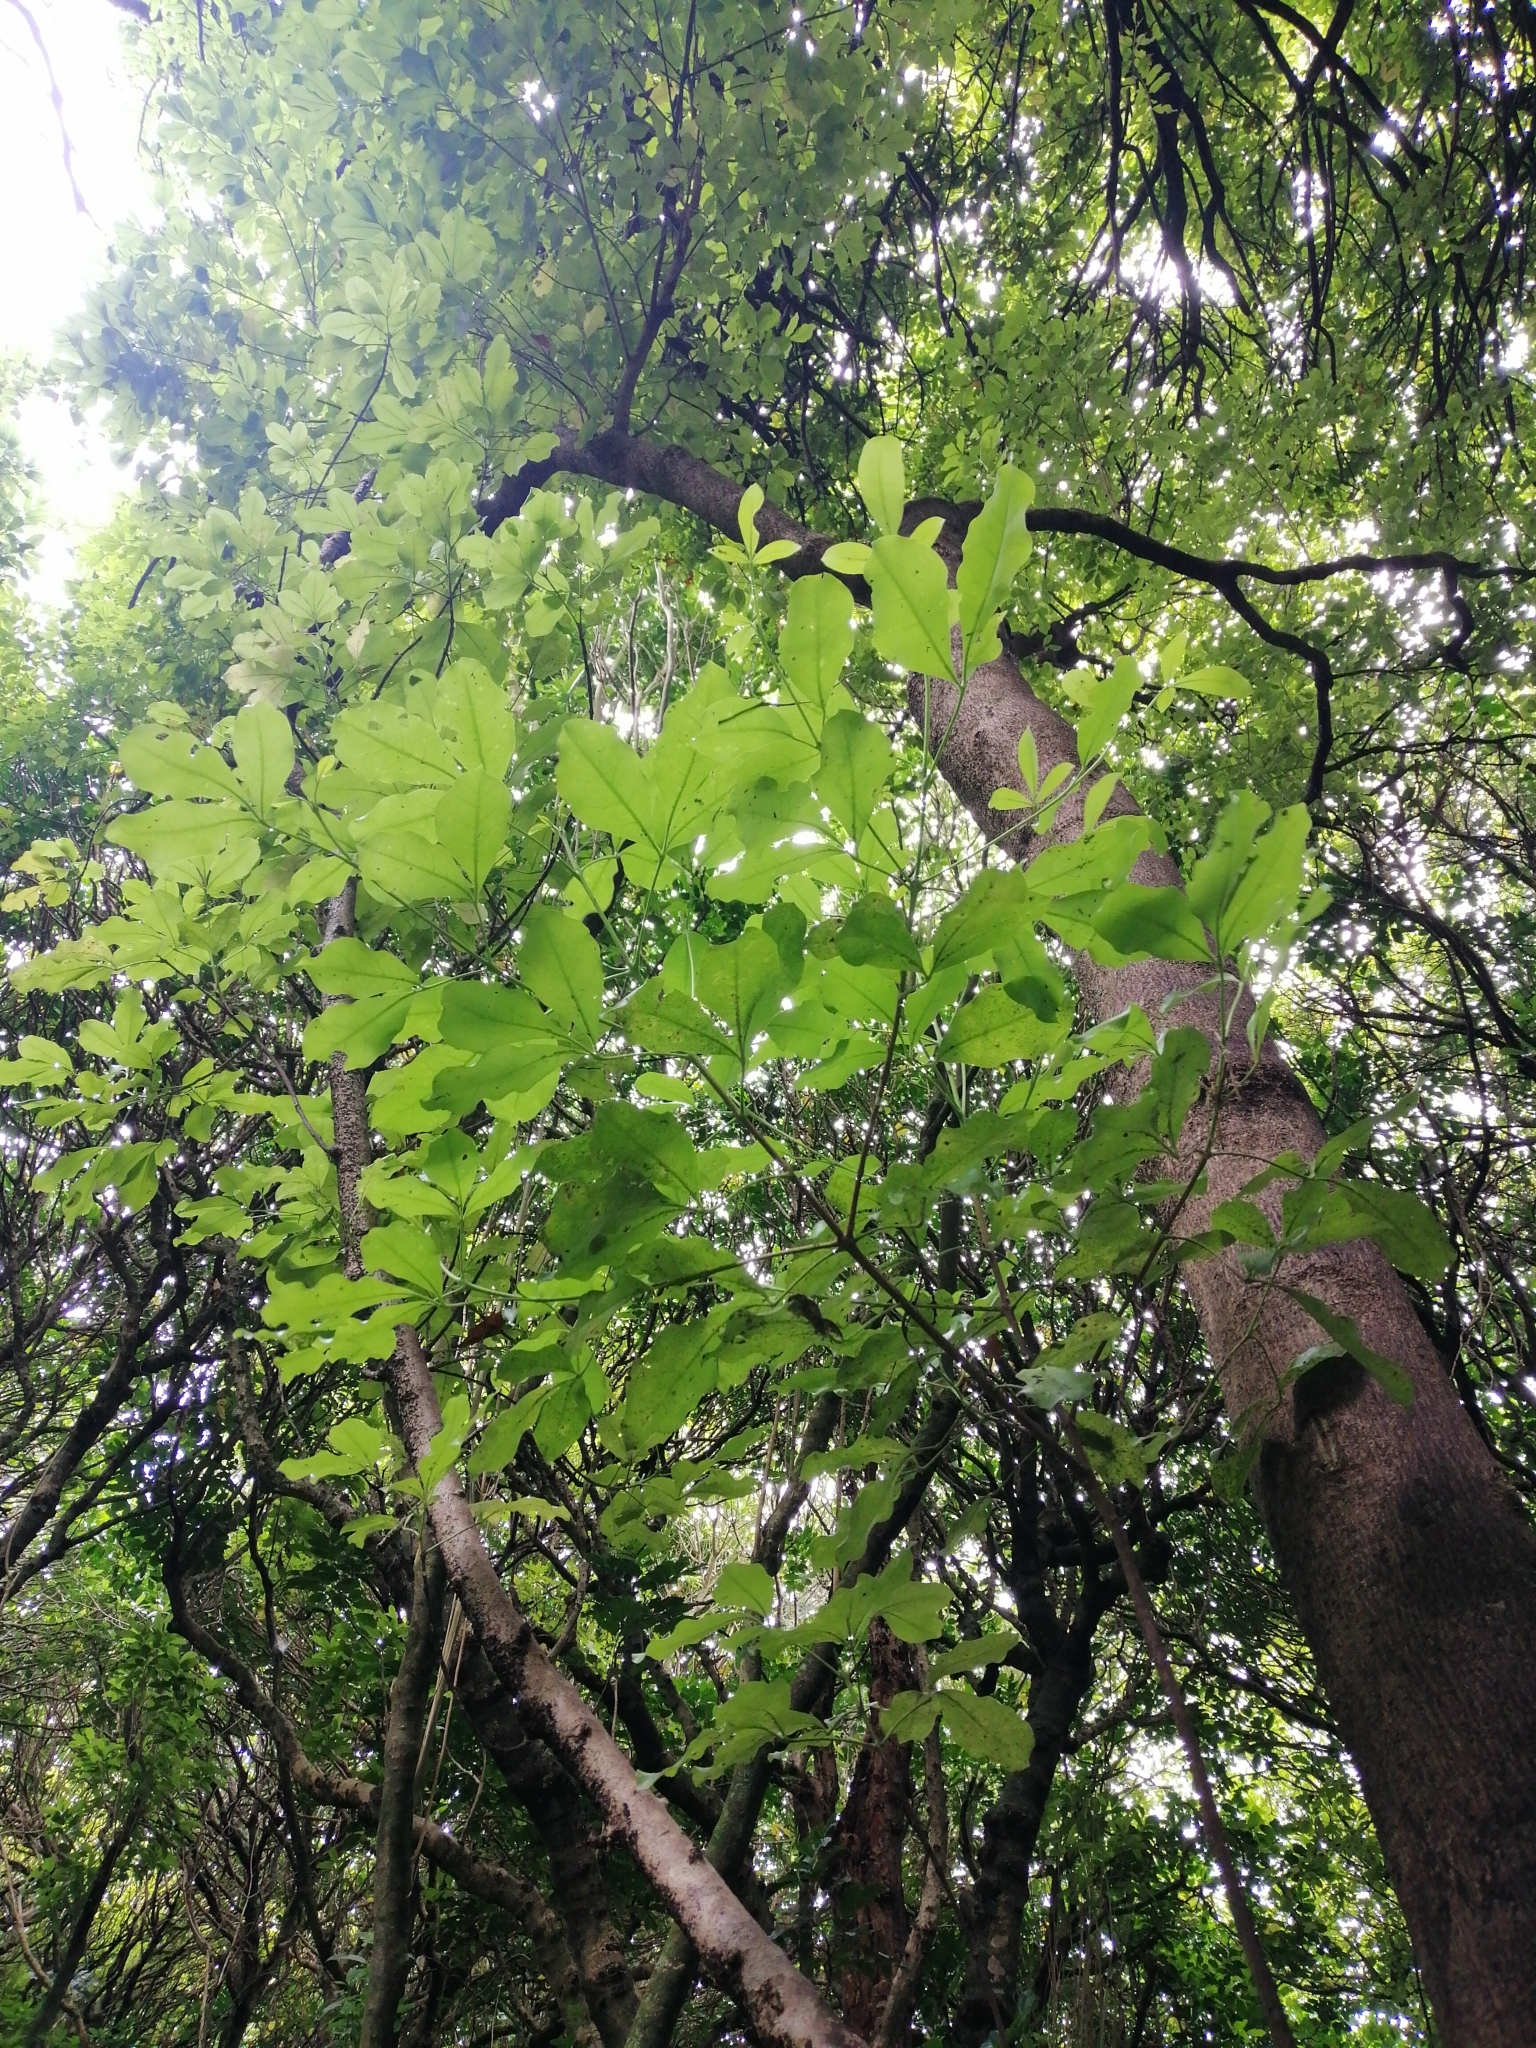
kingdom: Plantae
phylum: Tracheophyta
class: Magnoliopsida
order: Sapindales
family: Rutaceae
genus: Melicope
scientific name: Melicope ternata
